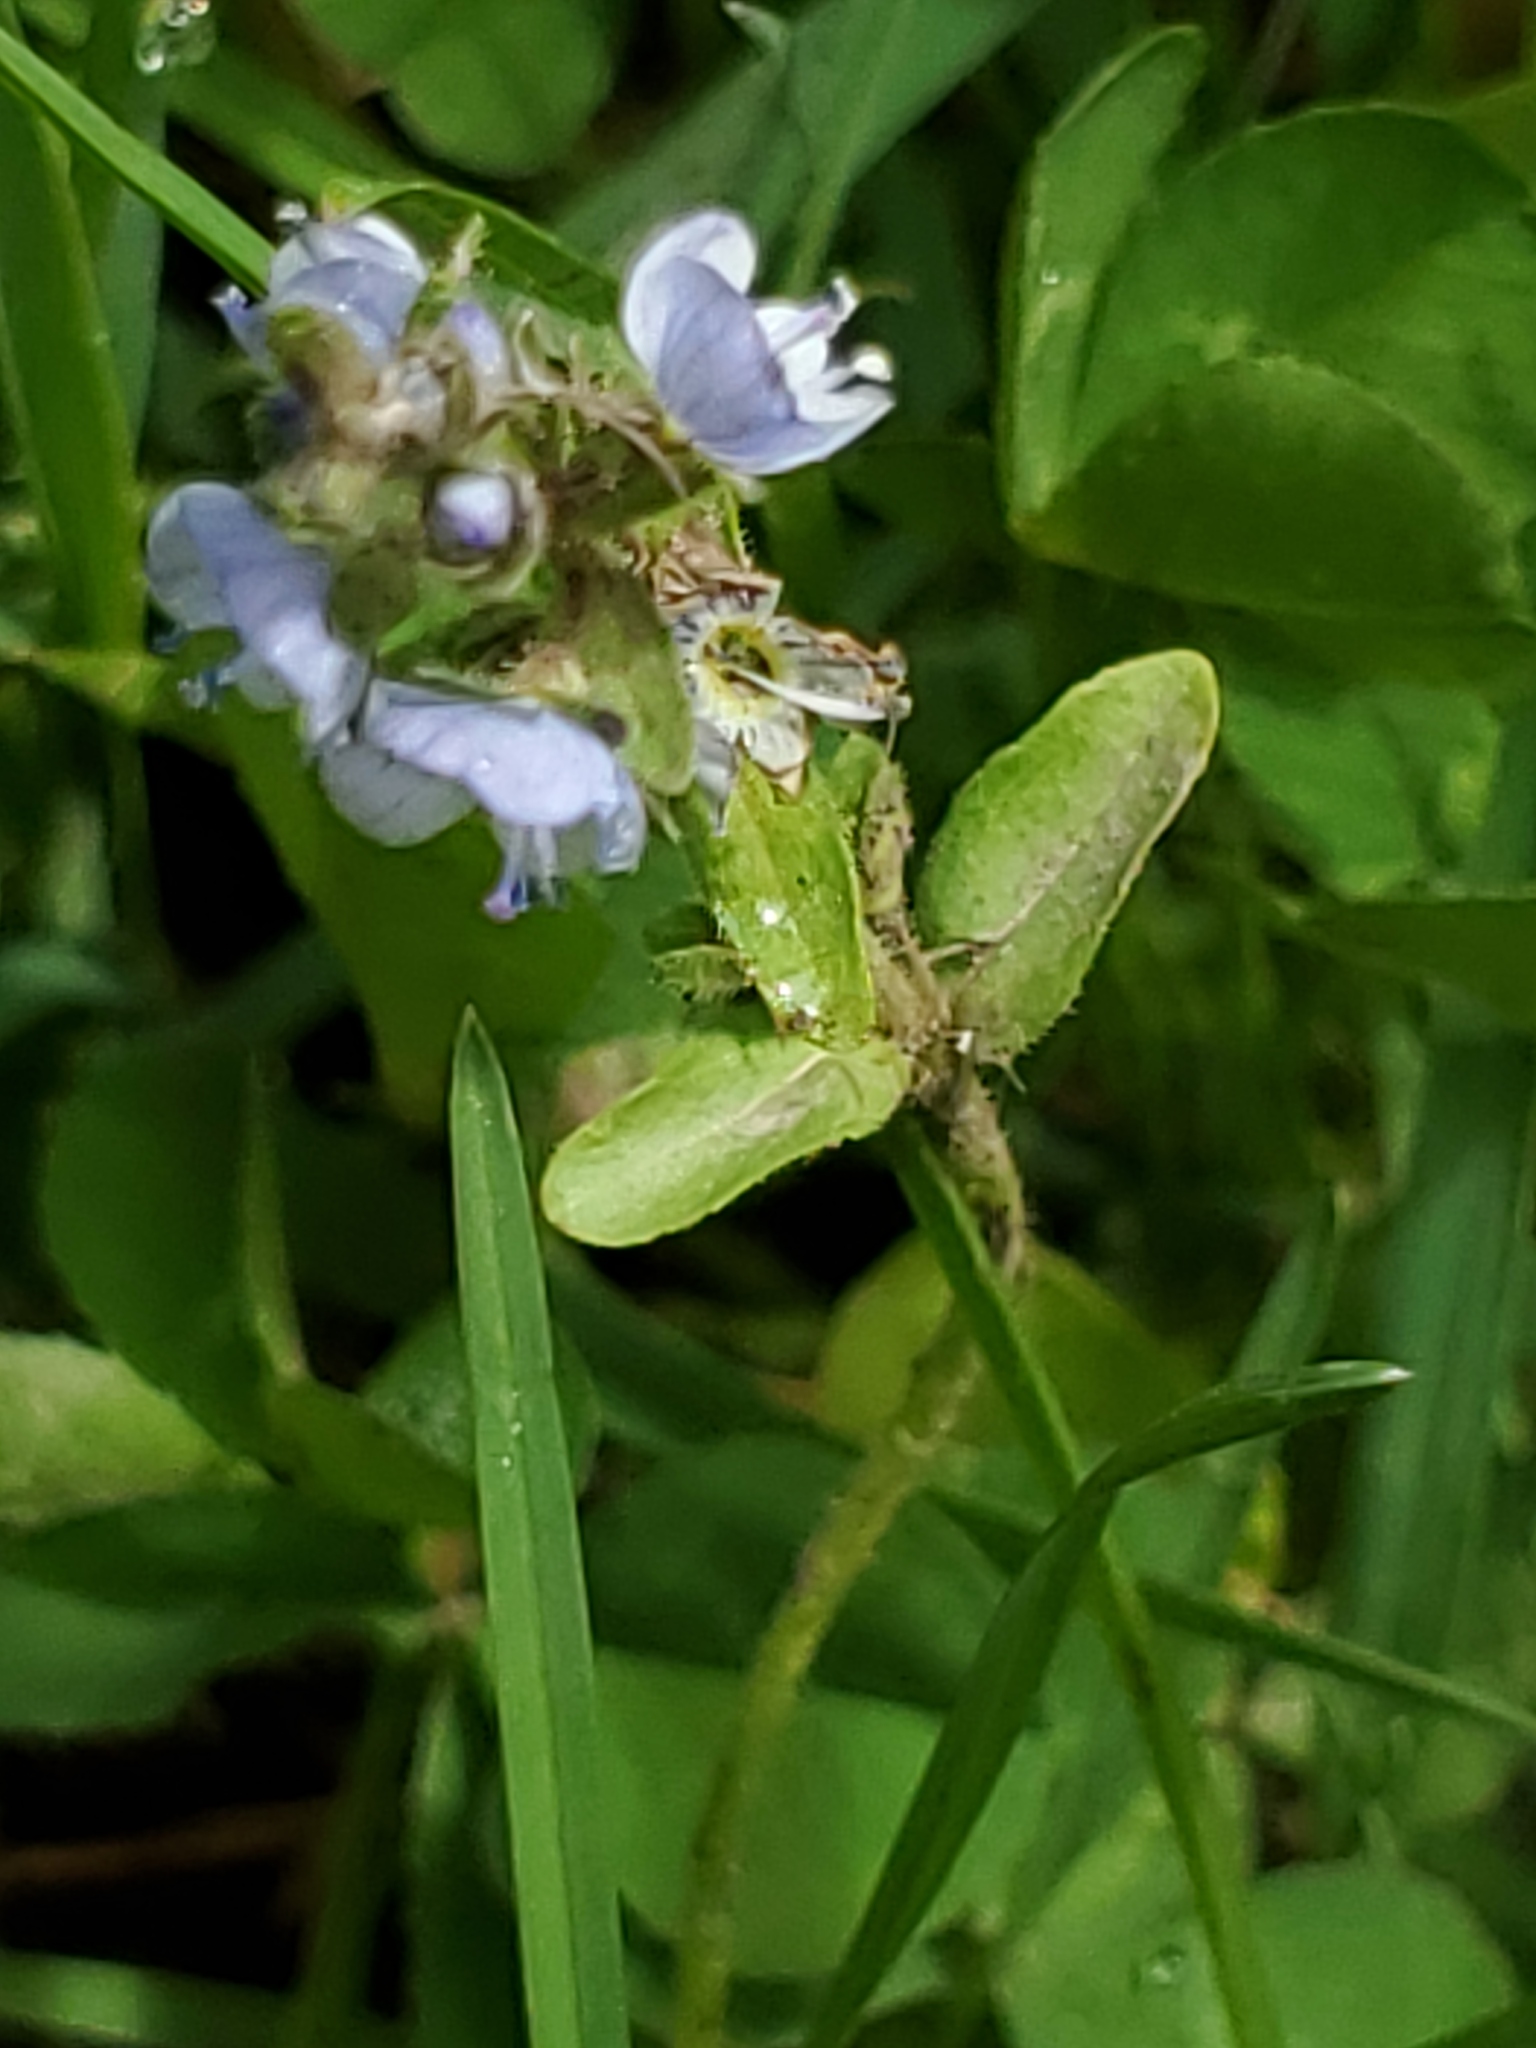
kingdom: Plantae
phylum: Tracheophyta
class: Magnoliopsida
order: Lamiales
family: Plantaginaceae
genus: Veronica
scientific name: Veronica serpyllifolia
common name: Thyme-leaved speedwell
